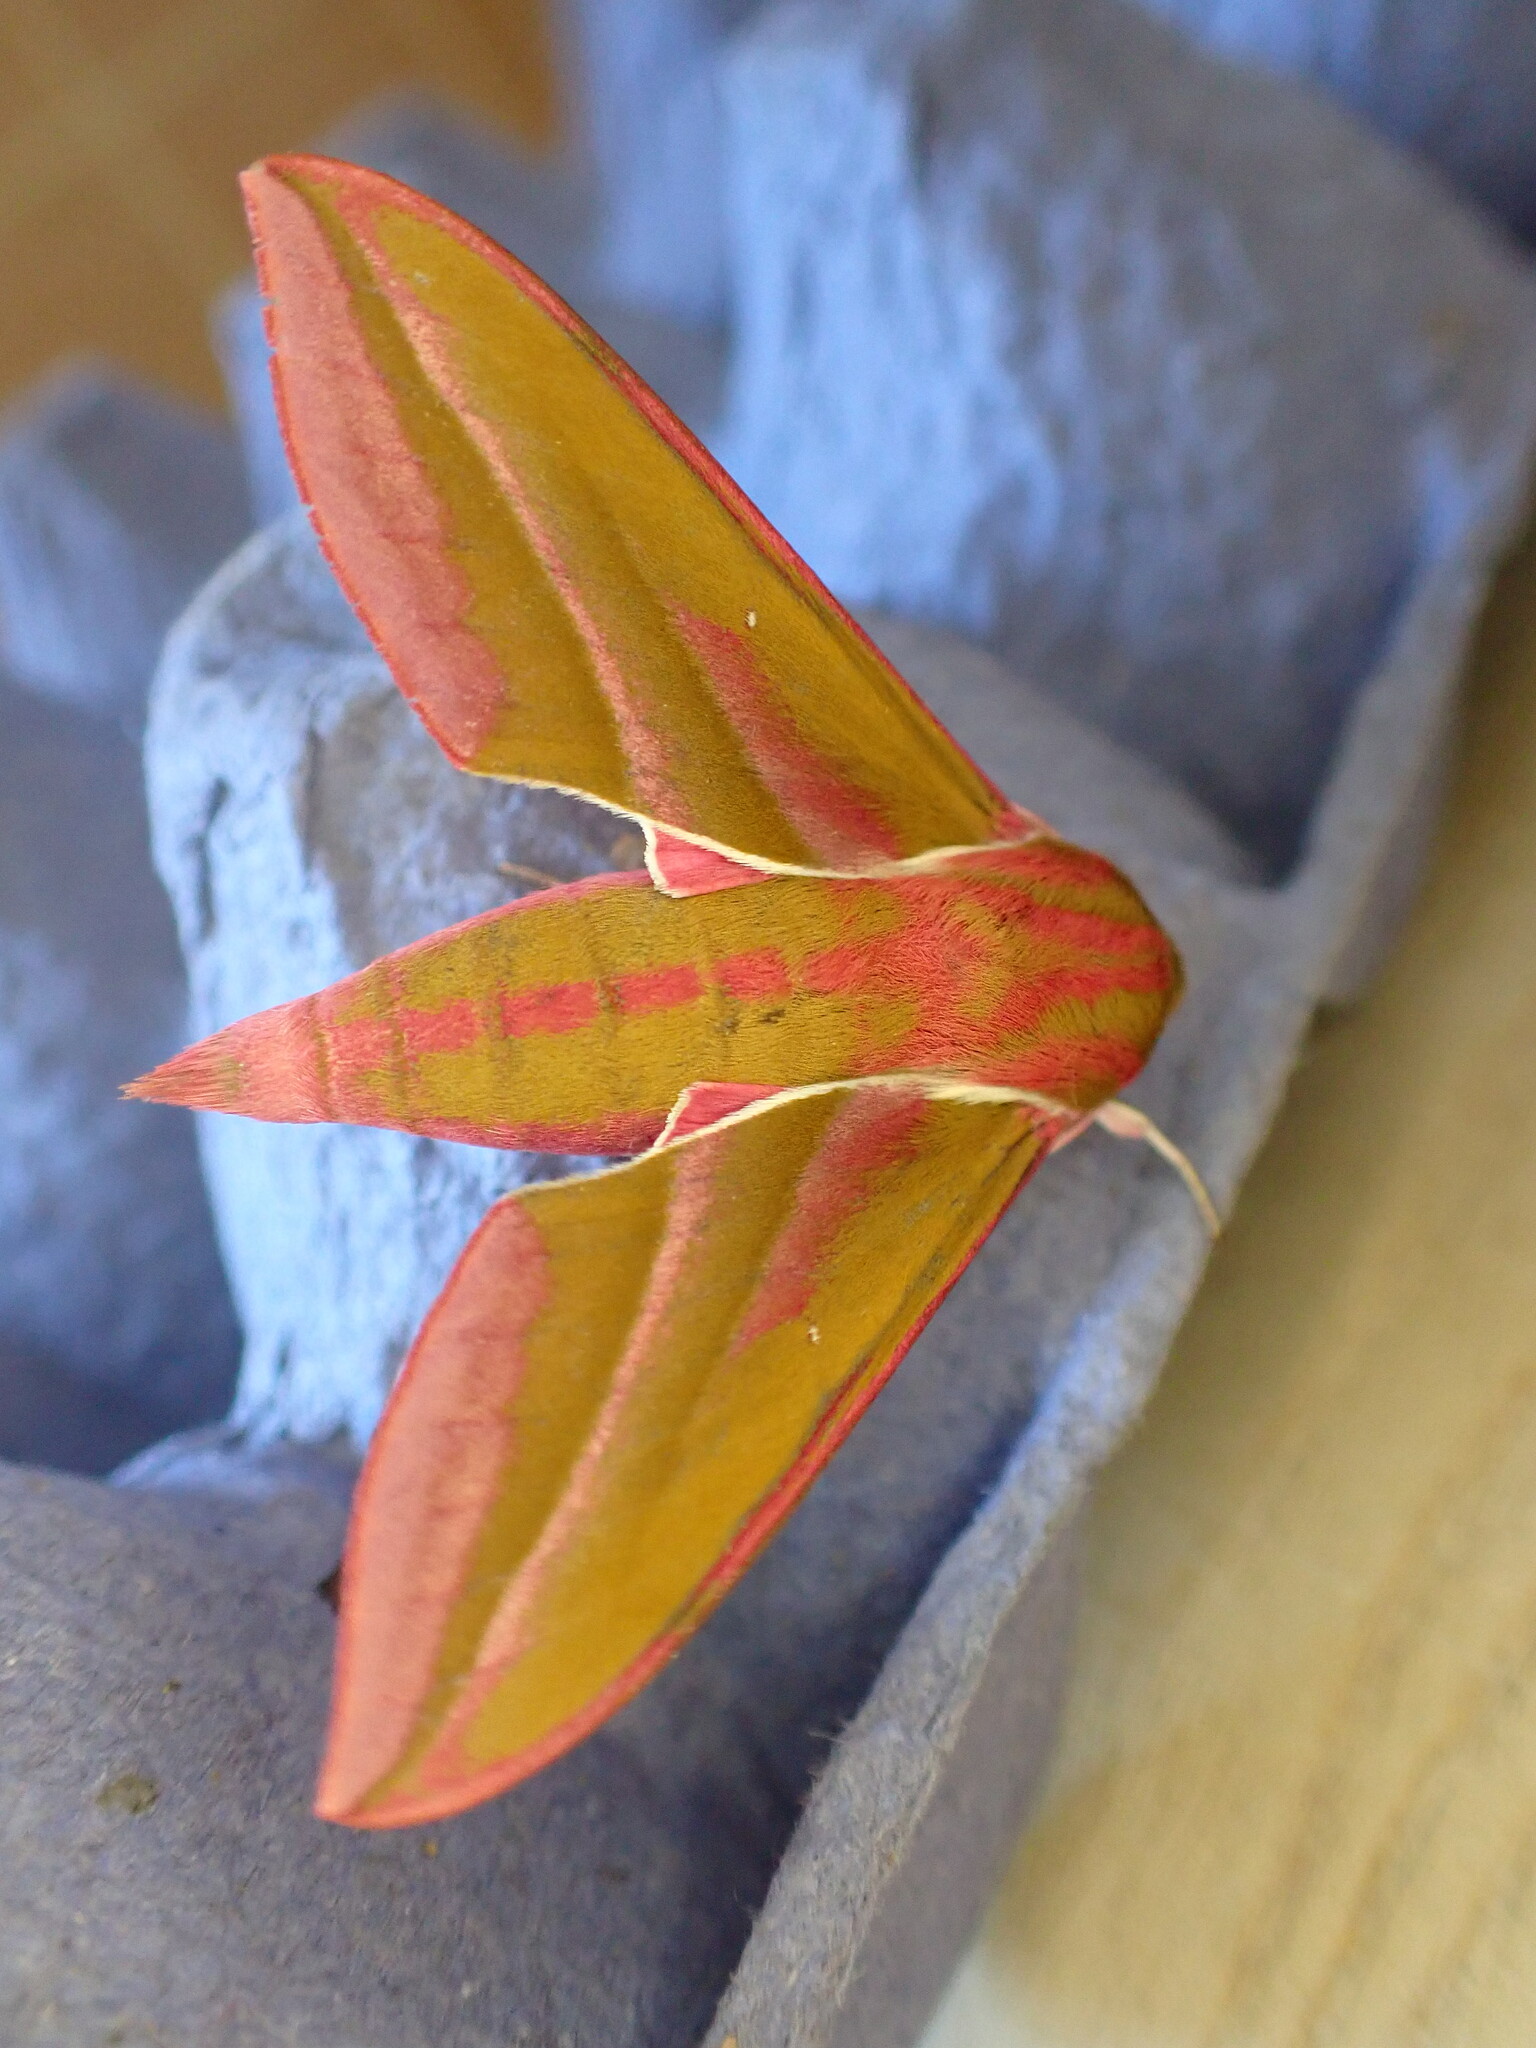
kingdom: Animalia
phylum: Arthropoda
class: Insecta
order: Lepidoptera
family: Sphingidae
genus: Deilephila
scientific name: Deilephila elpenor
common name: Elephant hawk-moth
